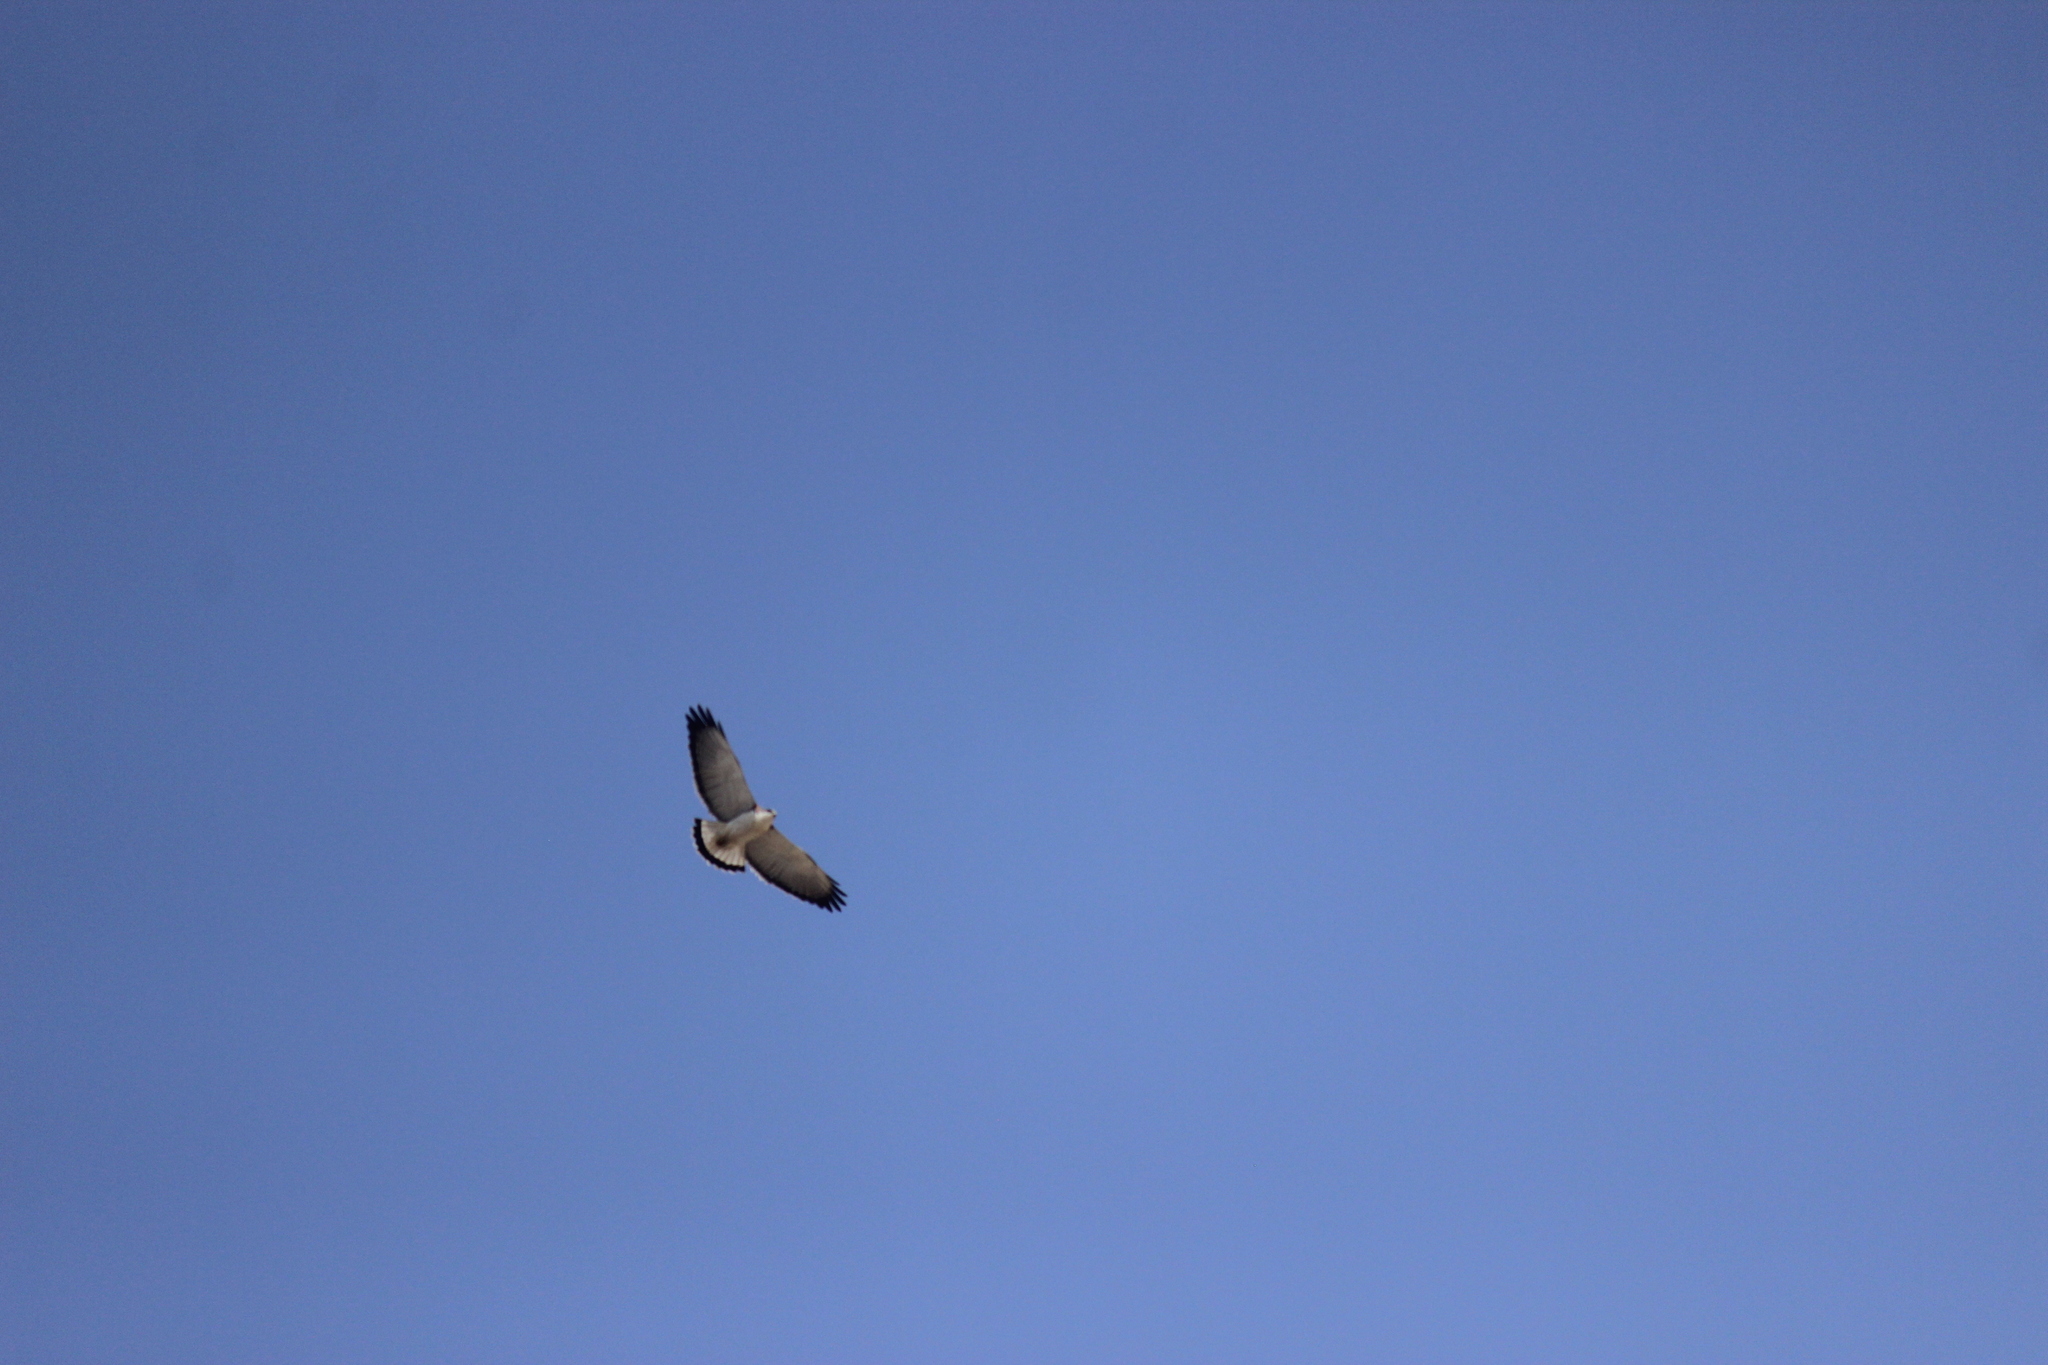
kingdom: Animalia
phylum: Chordata
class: Aves
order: Accipitriformes
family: Accipitridae
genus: Buteo
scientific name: Buteo polyosoma
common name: Variable hawk
